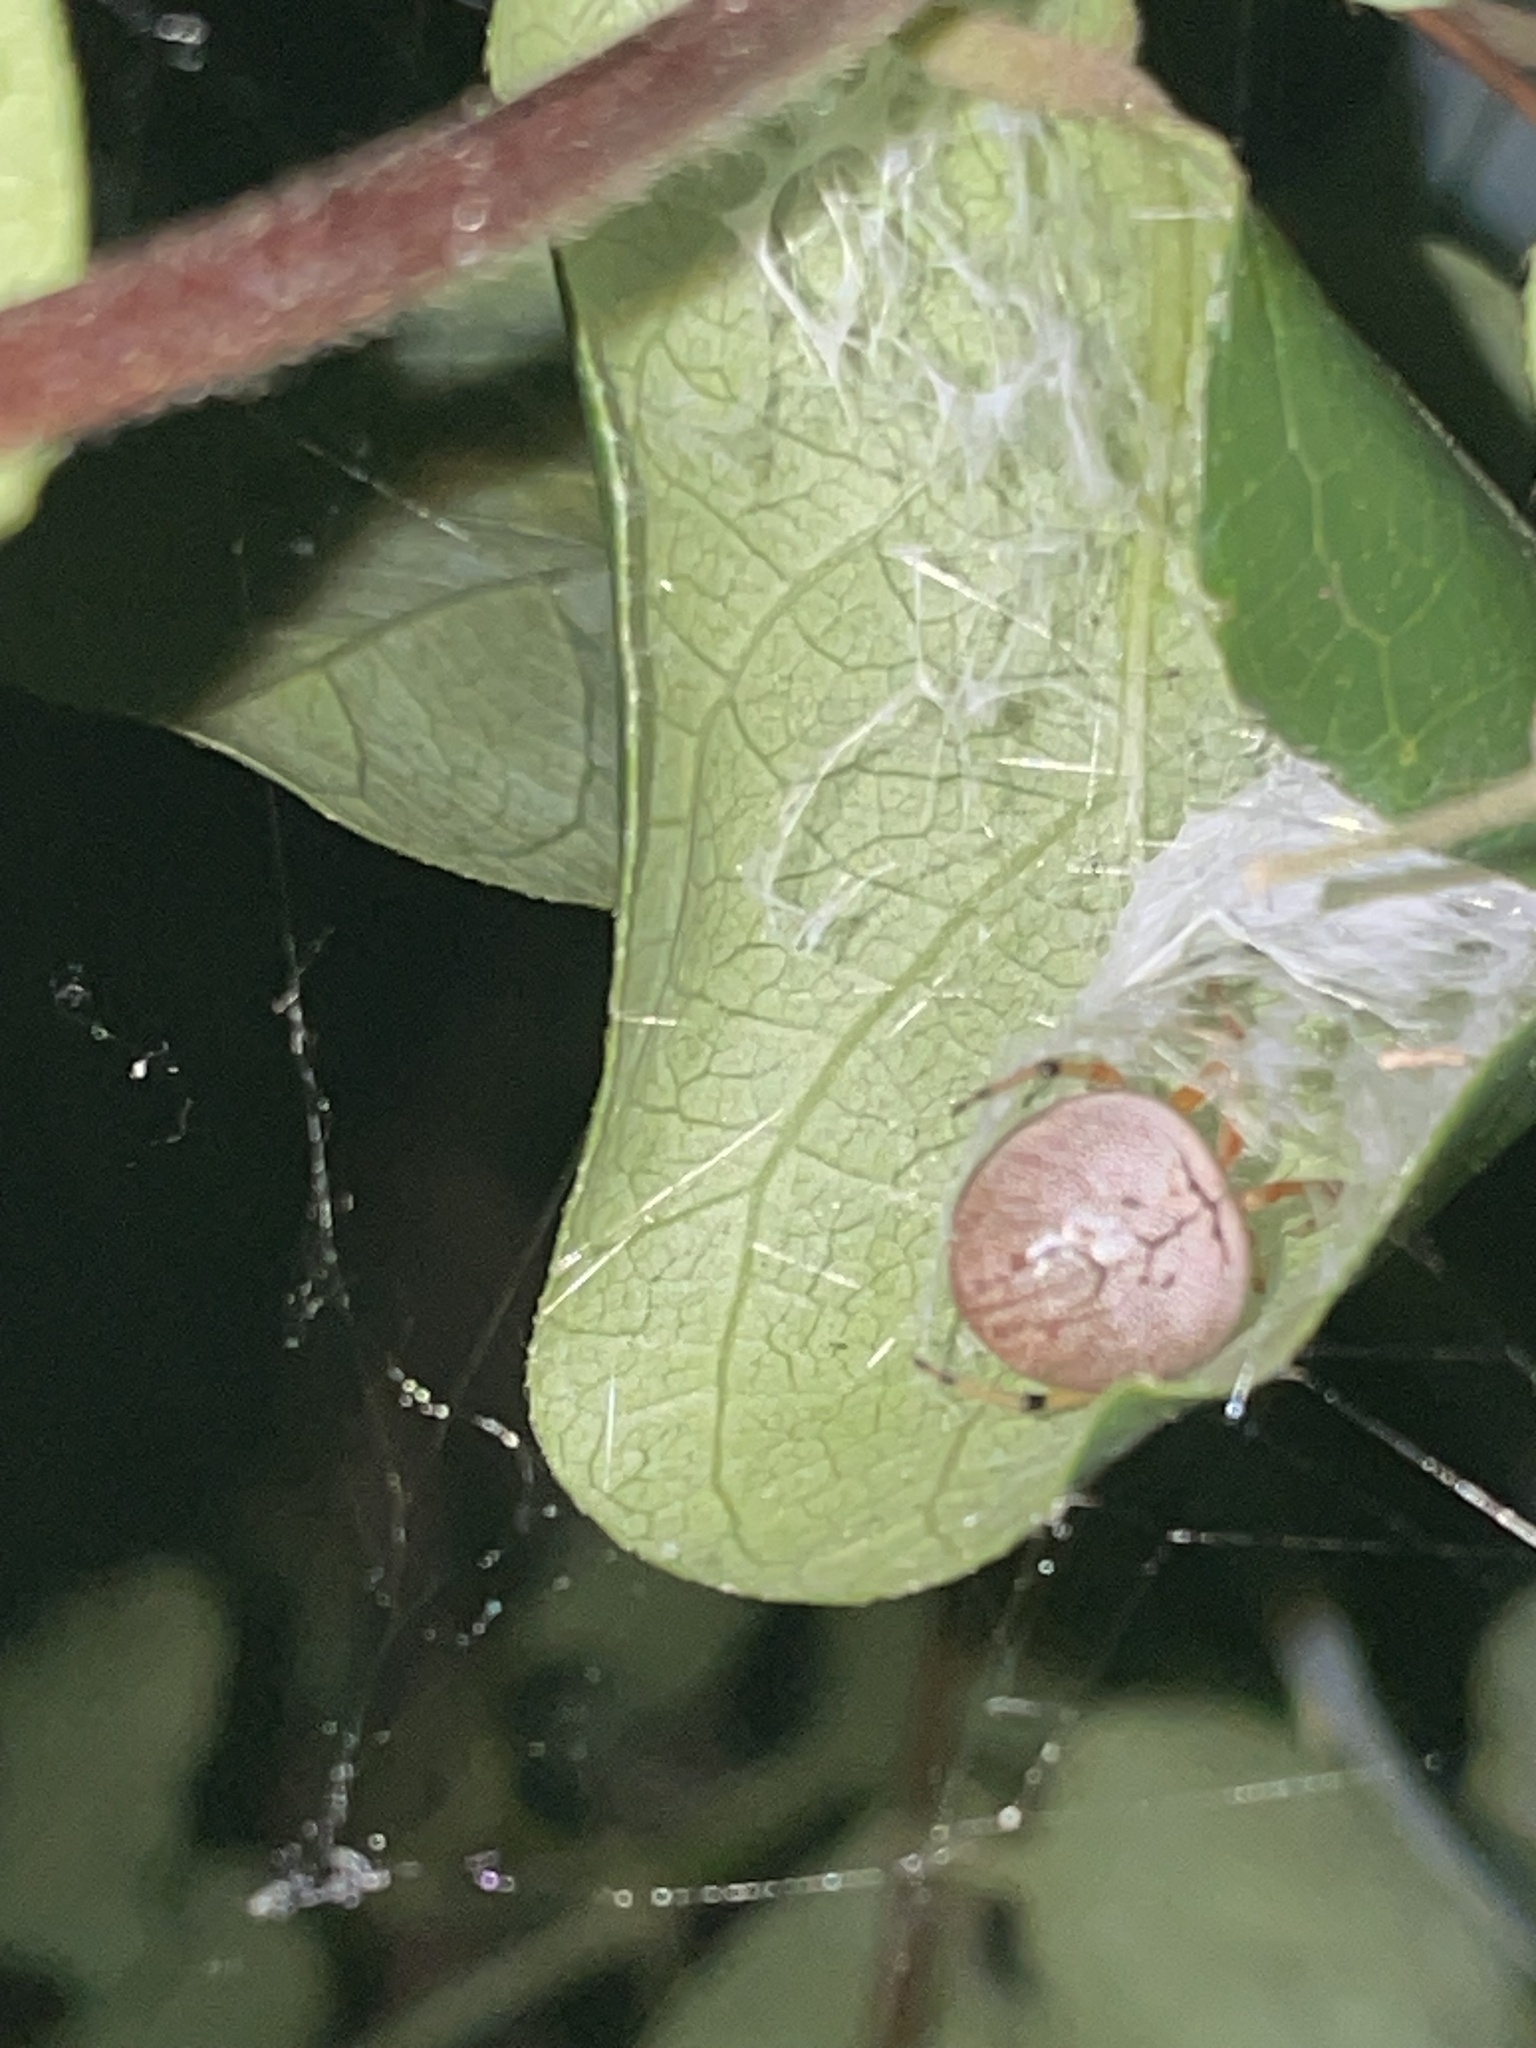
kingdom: Animalia
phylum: Arthropoda
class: Arachnida
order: Araneae
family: Araneidae
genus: Araneus
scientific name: Araneus thaddeus
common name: Lattice orbweaver
